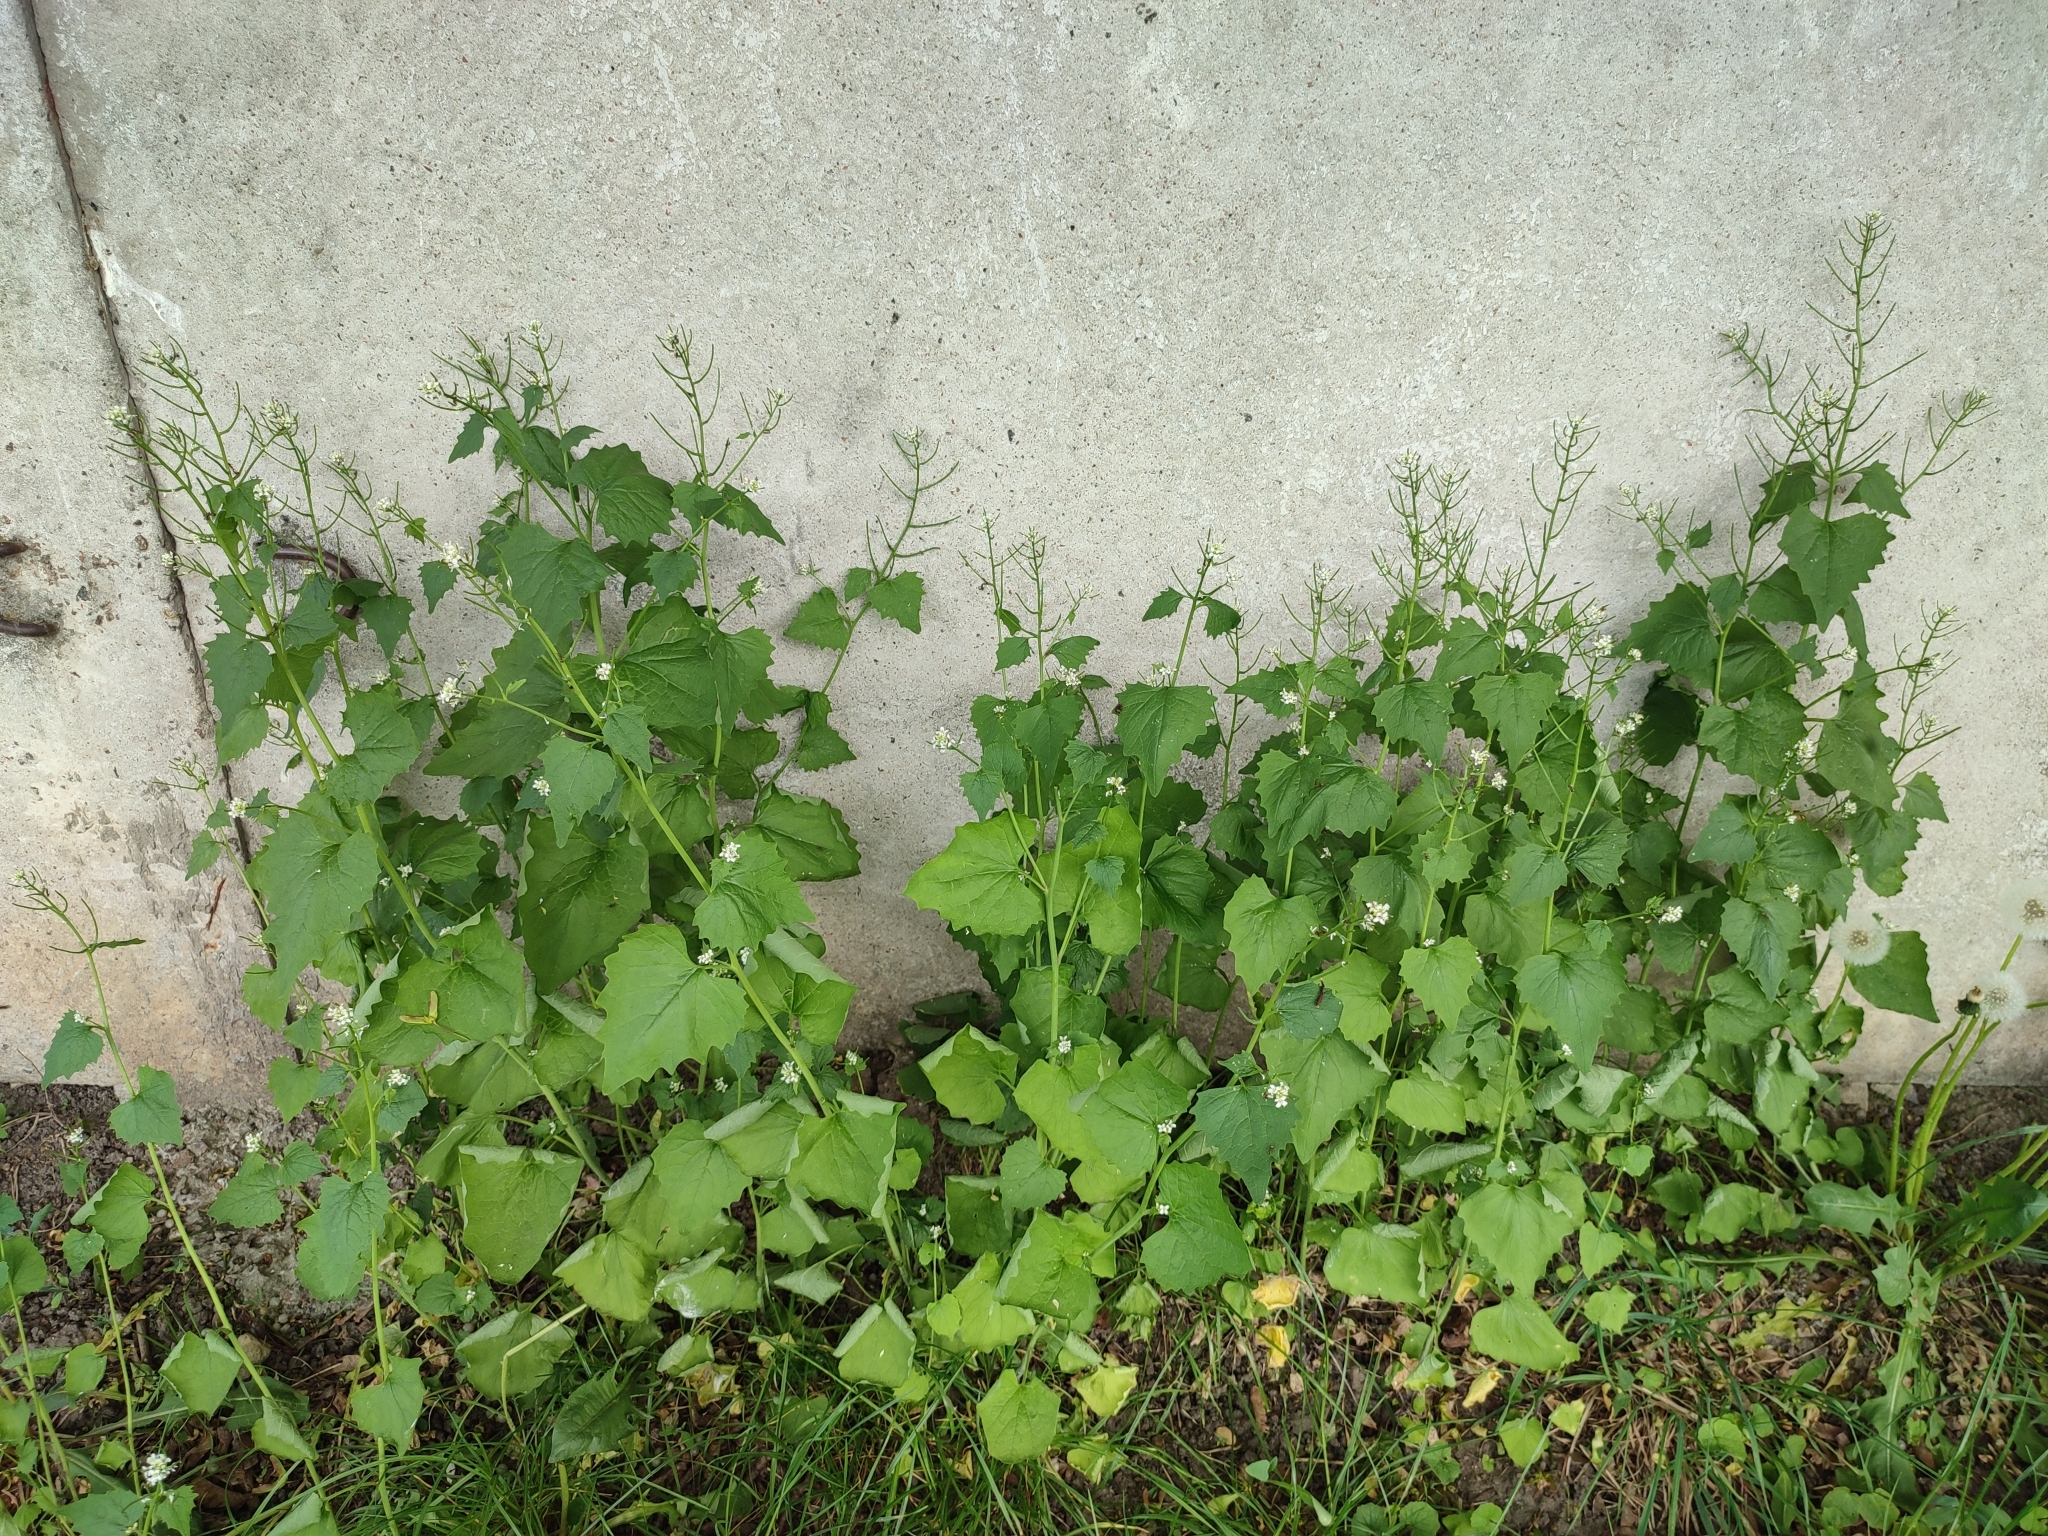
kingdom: Plantae
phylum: Tracheophyta
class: Magnoliopsida
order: Brassicales
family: Brassicaceae
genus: Alliaria
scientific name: Alliaria petiolata
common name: Garlic mustard
